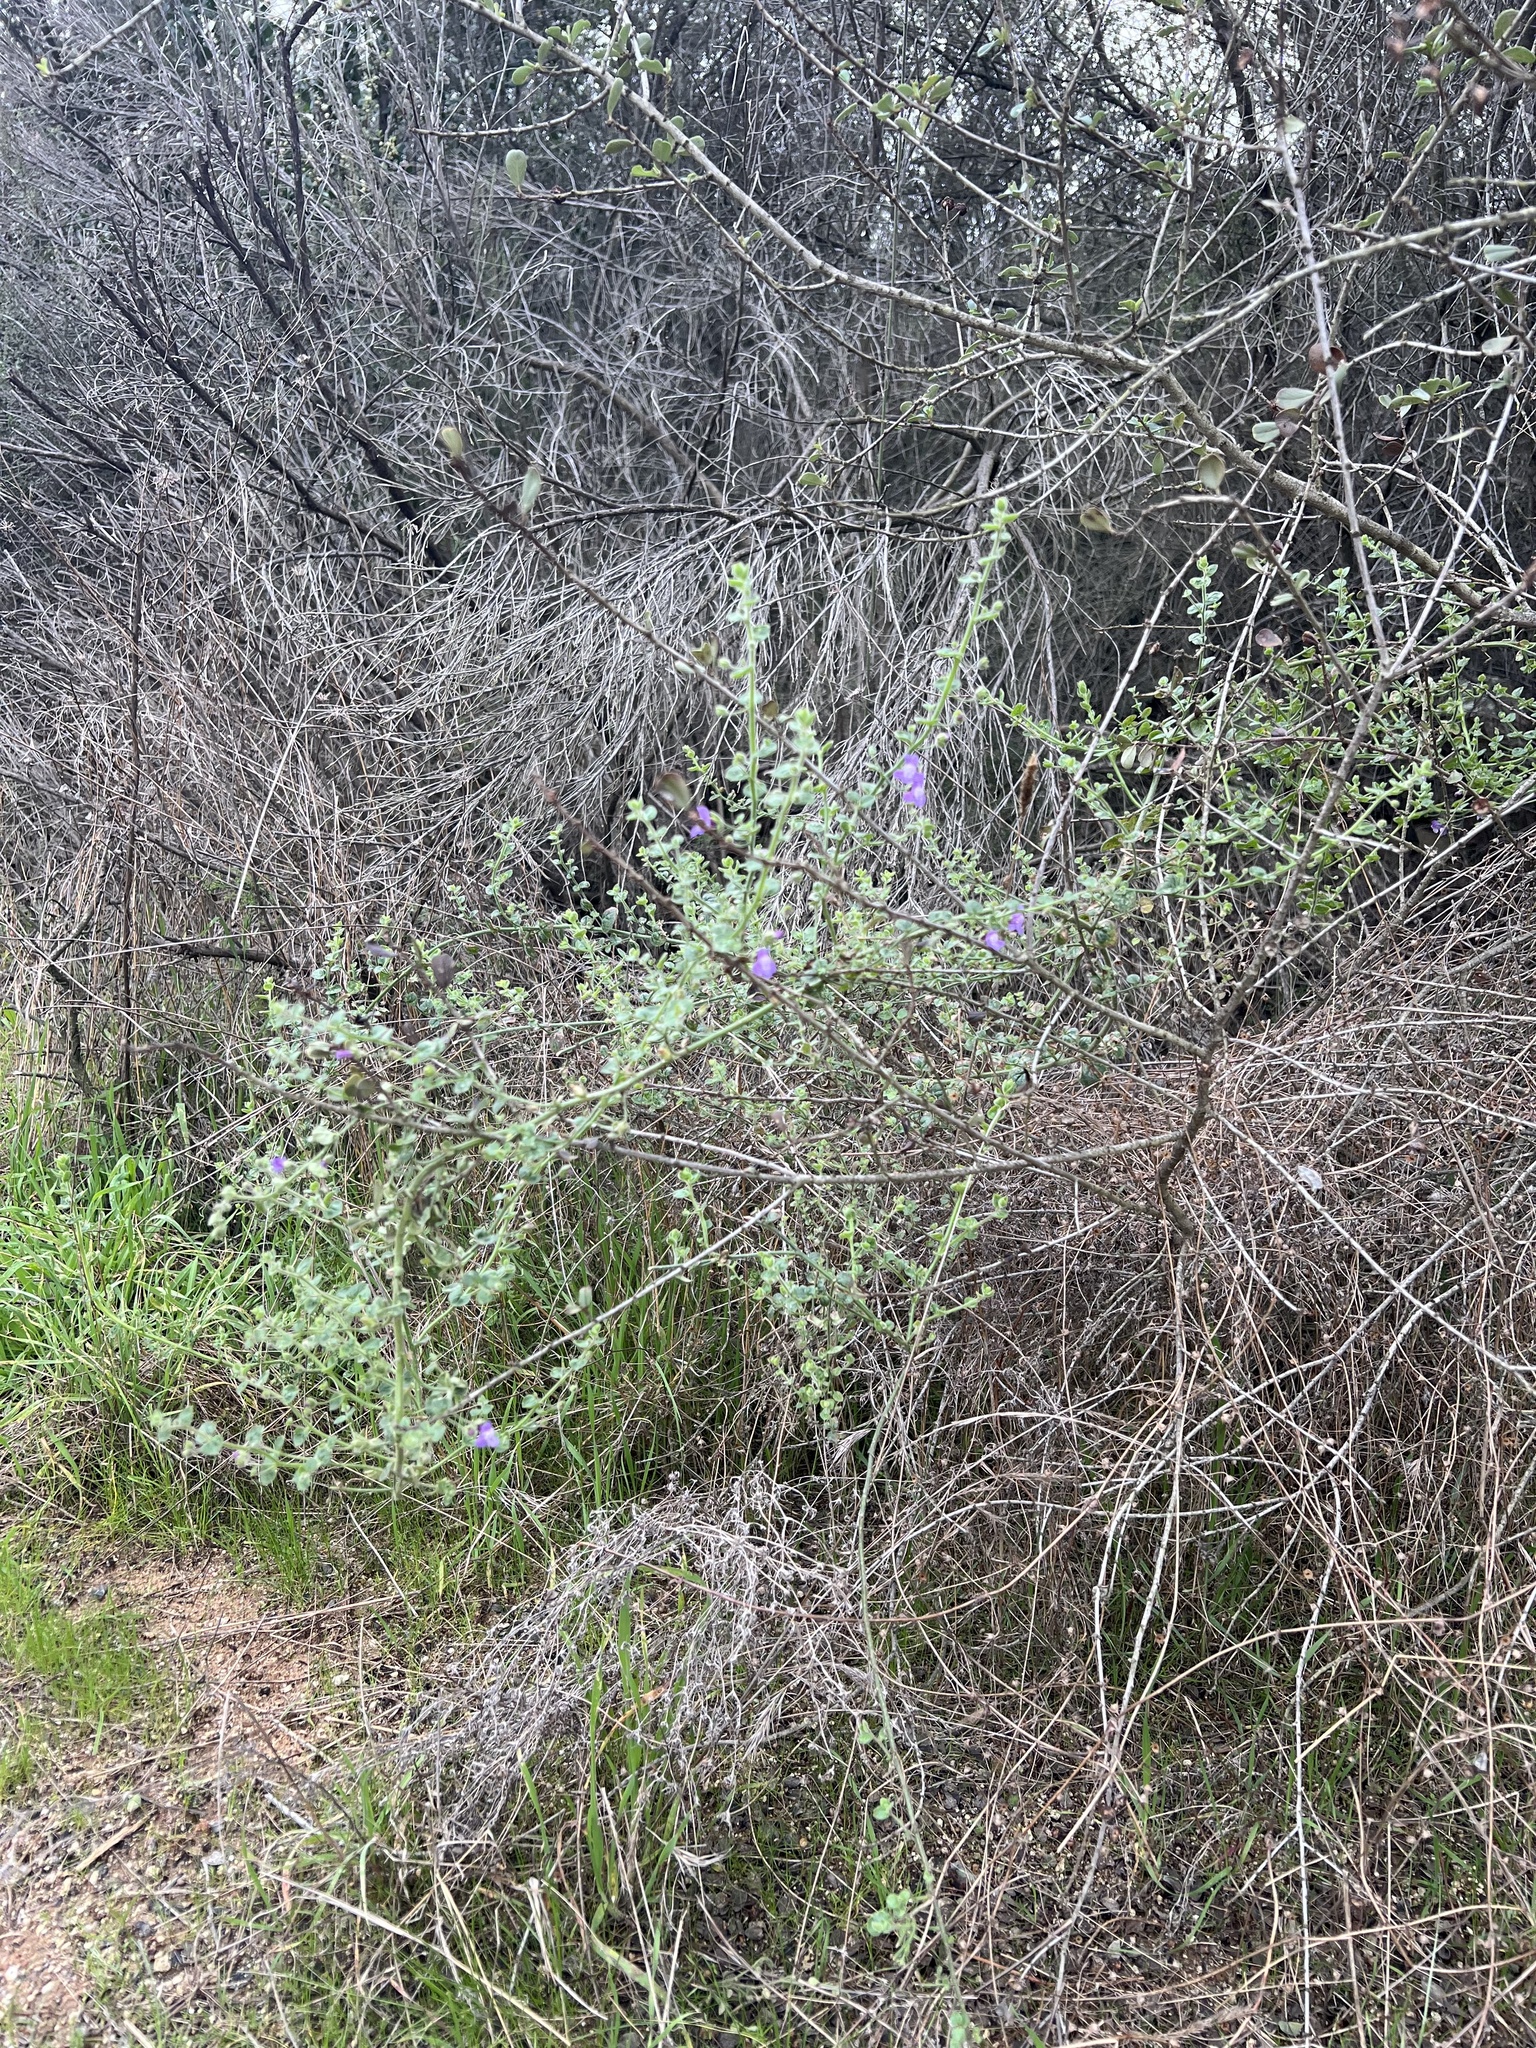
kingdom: Plantae
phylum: Tracheophyta
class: Magnoliopsida
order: Lamiales
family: Plantaginaceae
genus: Sairocarpus
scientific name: Sairocarpus nuttallianus
